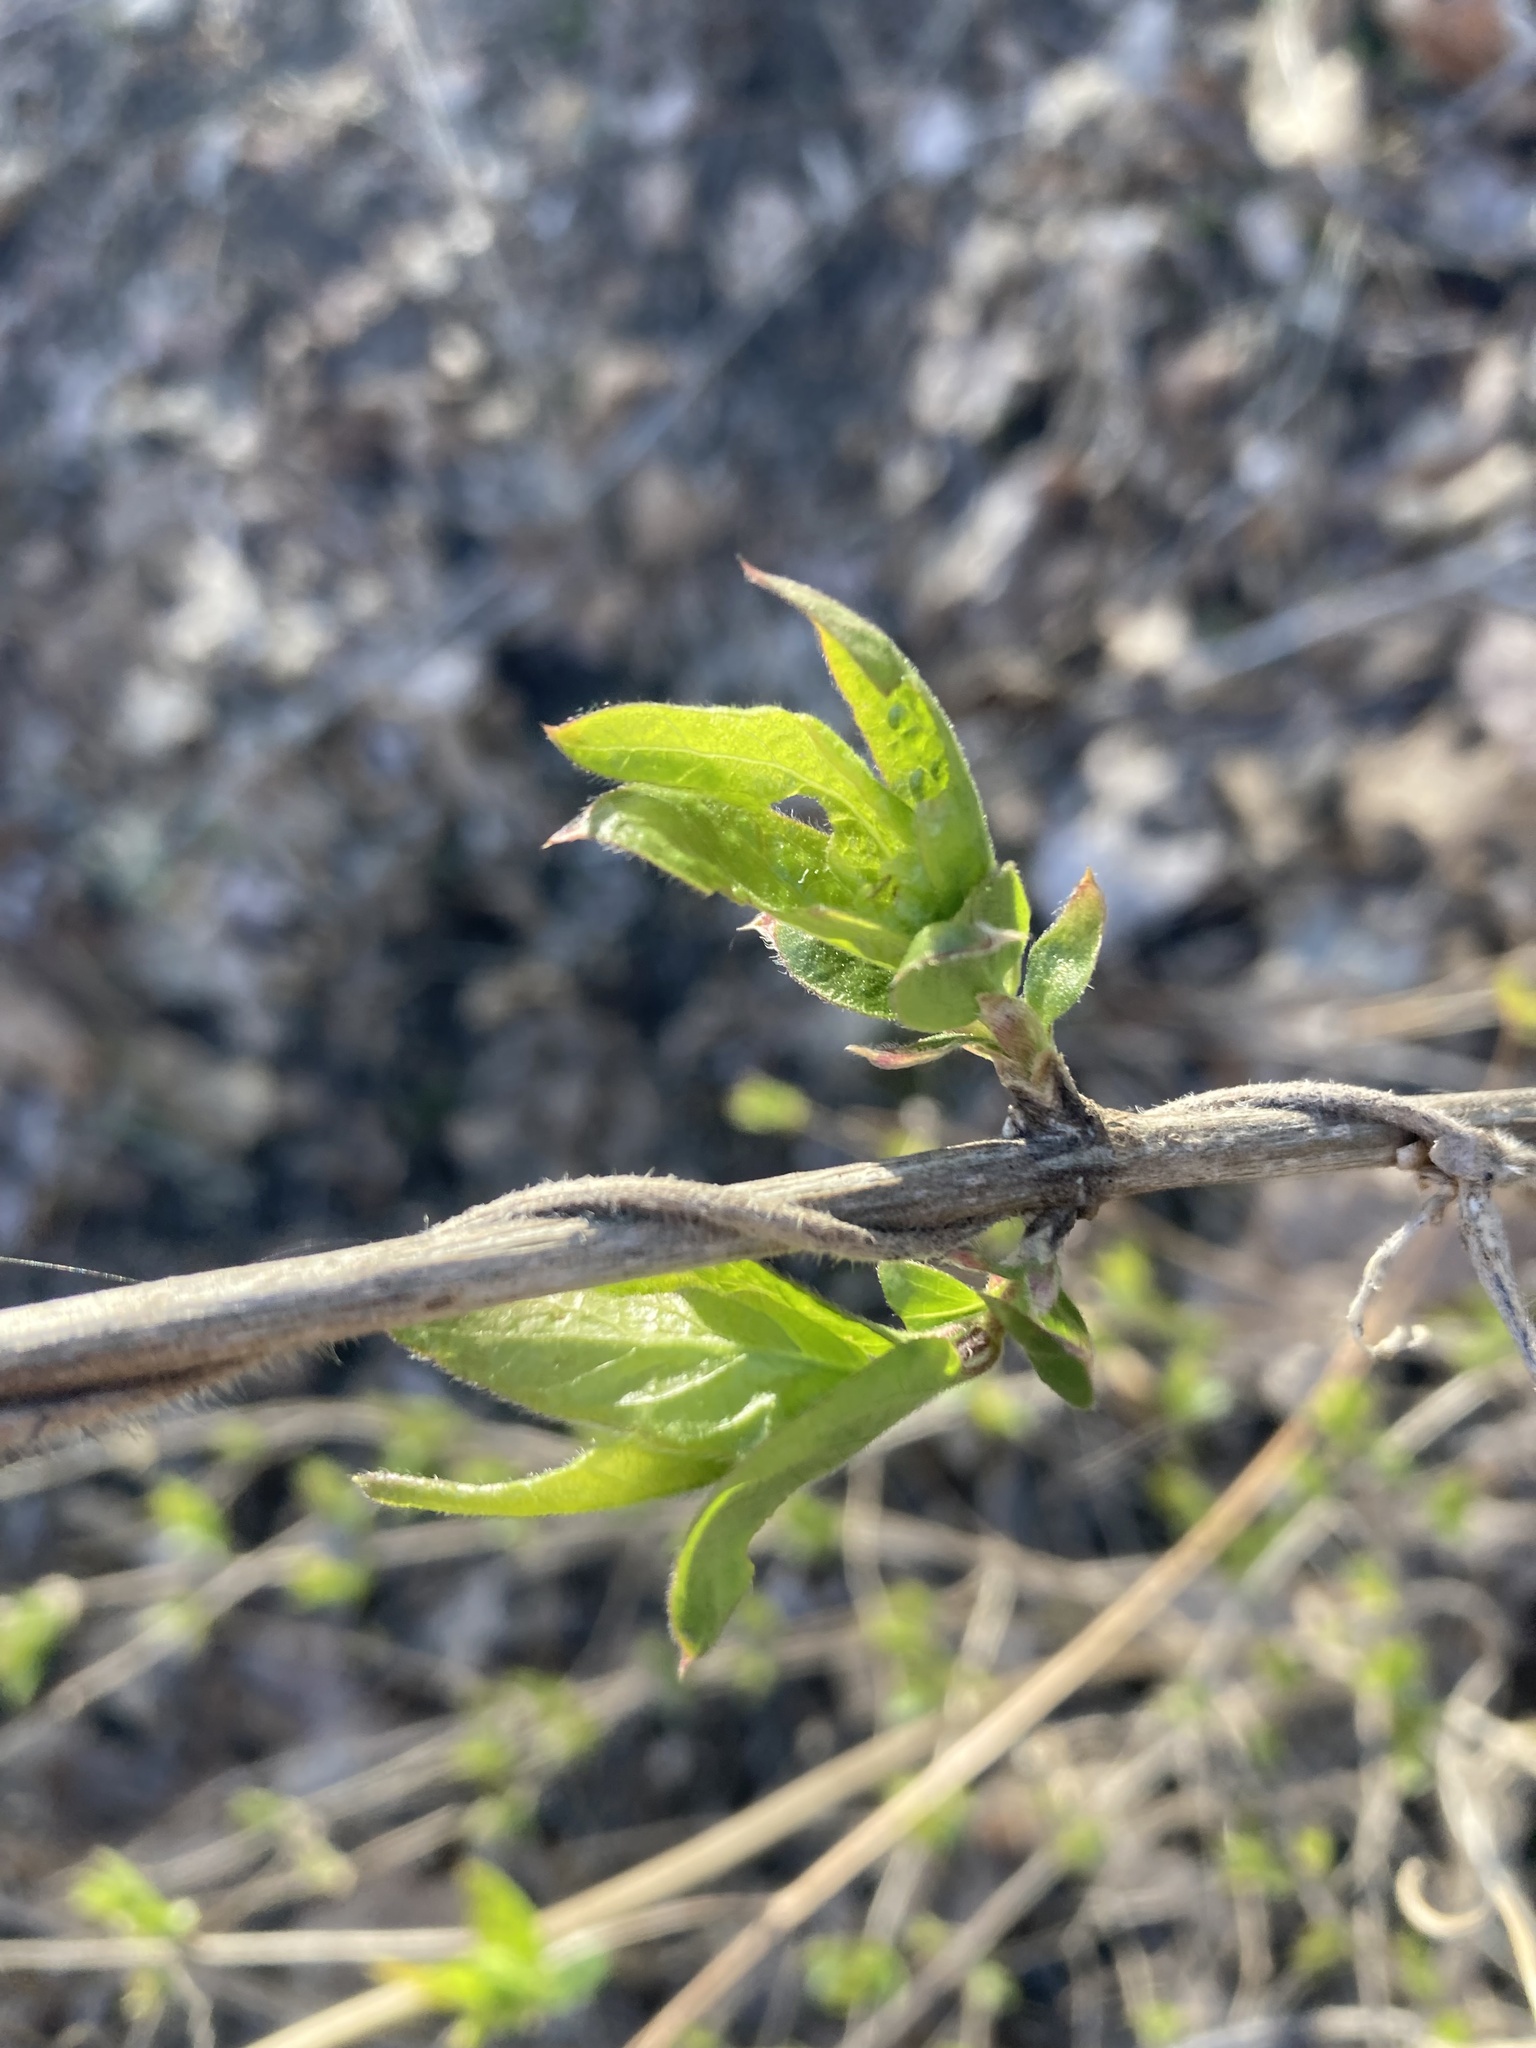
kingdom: Plantae
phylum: Tracheophyta
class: Magnoliopsida
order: Dipsacales
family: Caprifoliaceae
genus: Lonicera
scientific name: Lonicera maackii
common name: Amur honeysuckle
